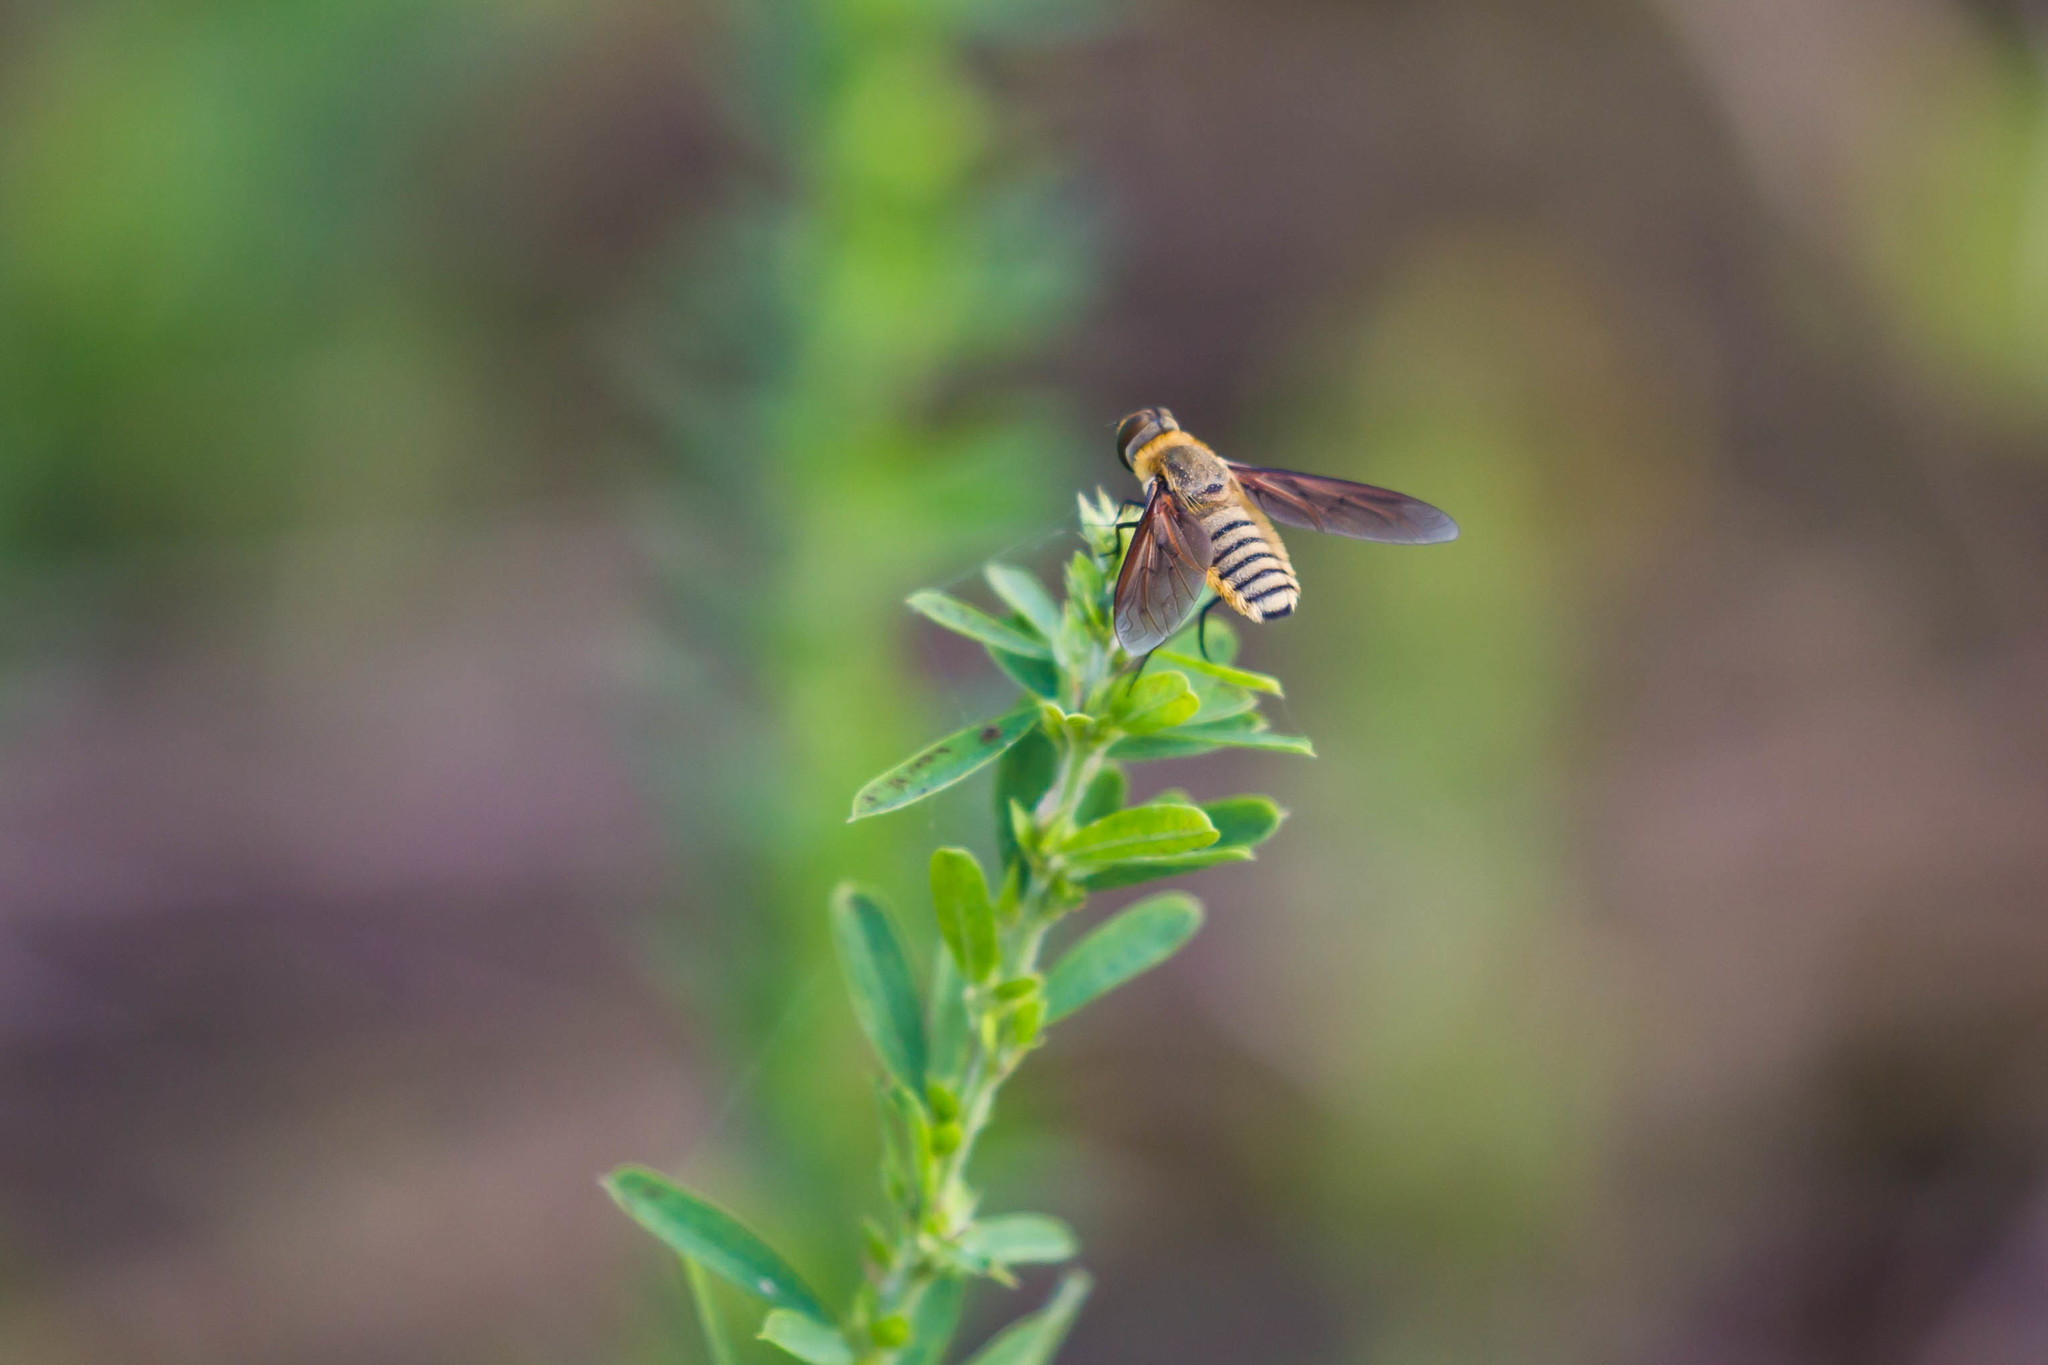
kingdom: Animalia
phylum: Arthropoda
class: Insecta
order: Diptera
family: Bombyliidae
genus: Poecilanthrax
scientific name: Poecilanthrax lucifer
